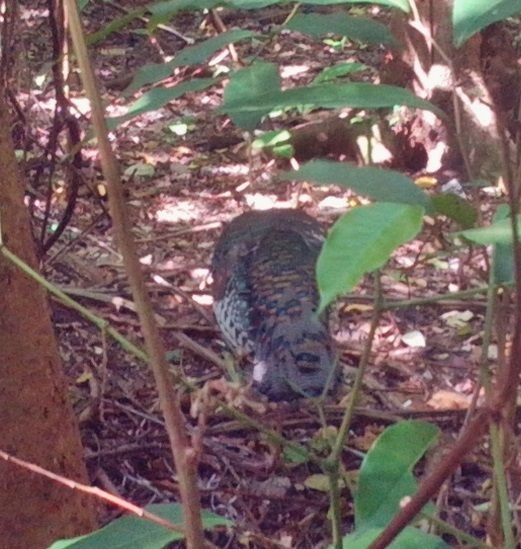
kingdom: Animalia
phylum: Chordata
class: Aves
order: Galliformes
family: Phasianidae
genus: Meleagris
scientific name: Meleagris ocellata
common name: Ocellated turkey
